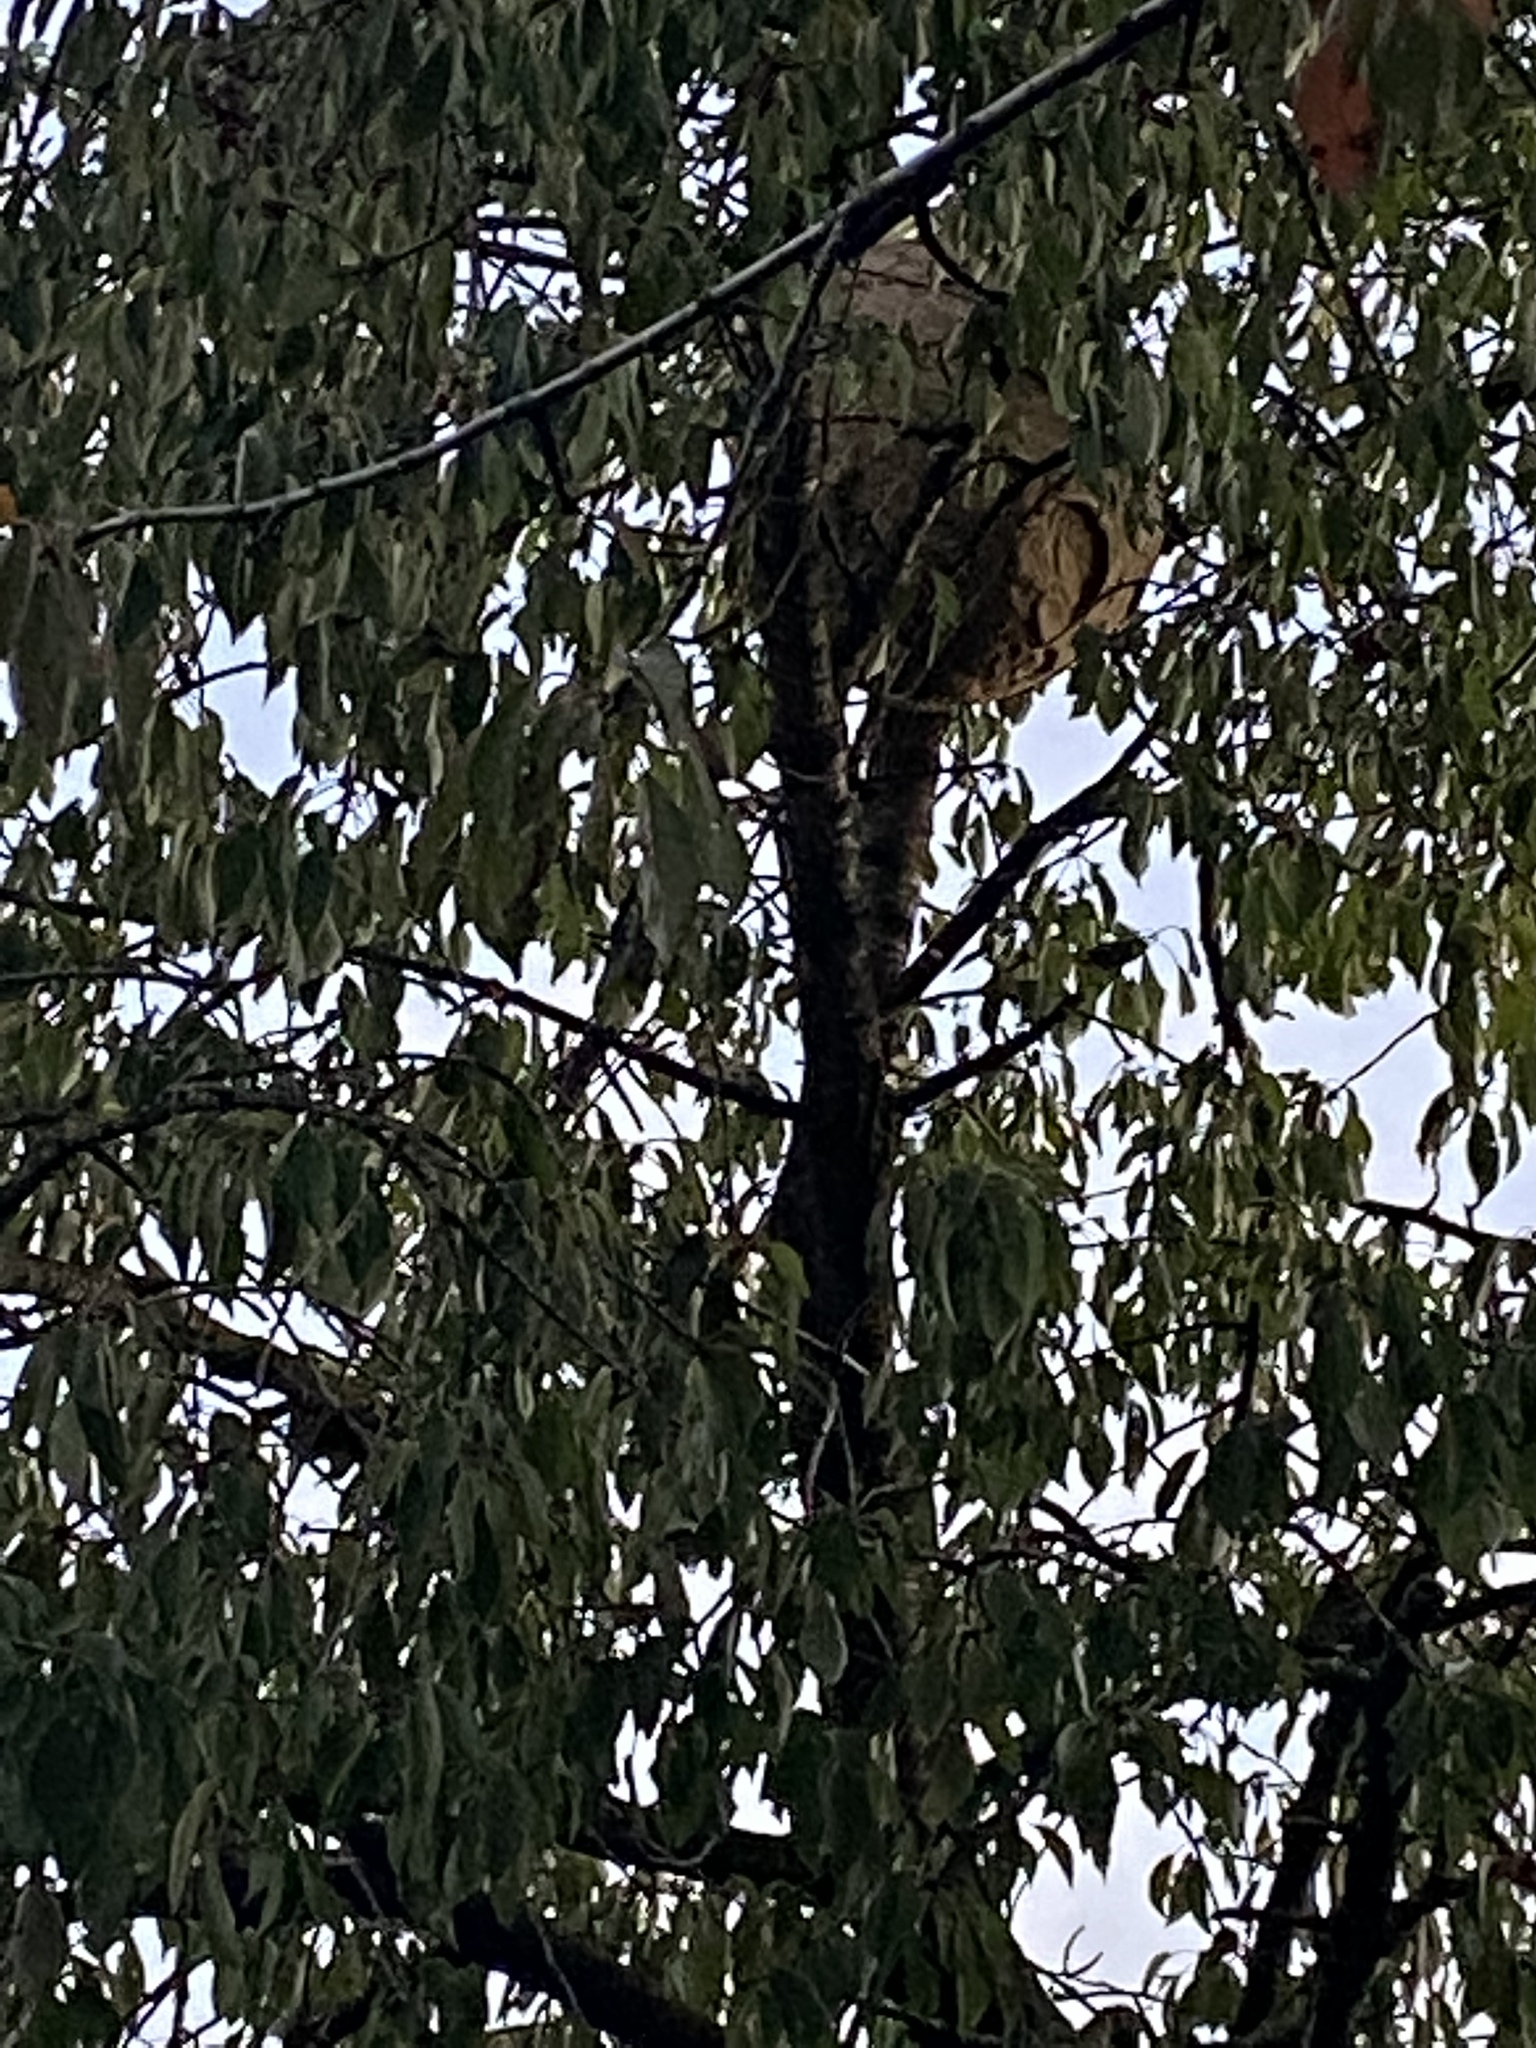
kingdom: Animalia
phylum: Arthropoda
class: Insecta
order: Hymenoptera
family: Vespidae
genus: Vespa
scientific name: Vespa velutina
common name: Asian hornet
